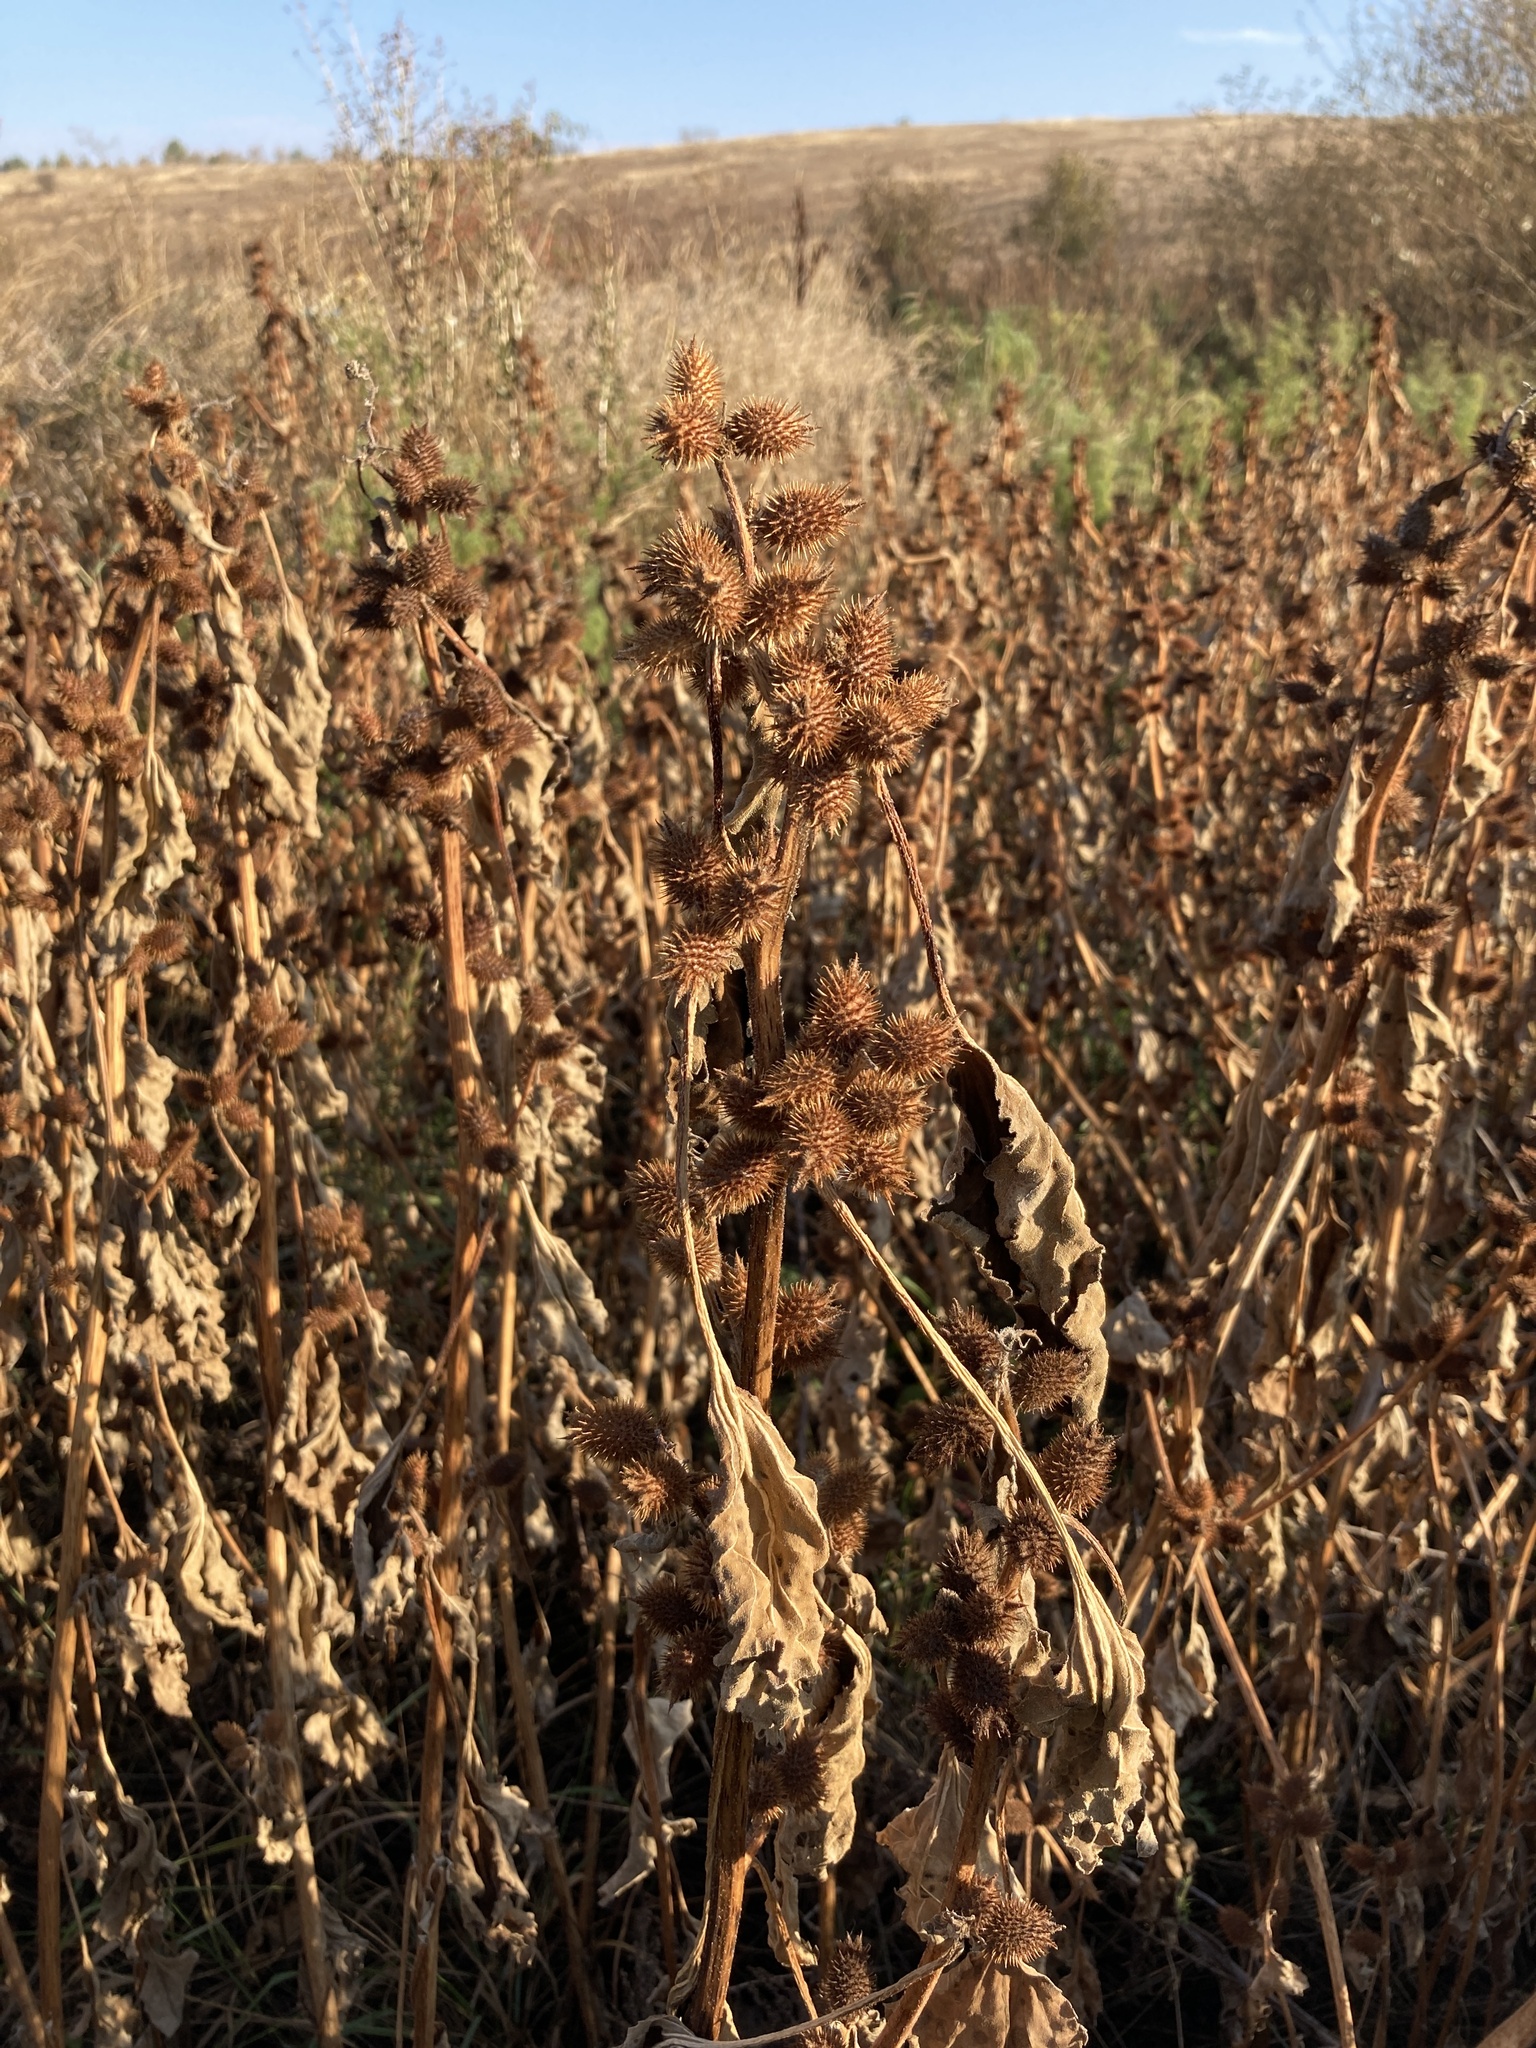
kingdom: Plantae
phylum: Tracheophyta
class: Magnoliopsida
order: Asterales
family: Asteraceae
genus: Xanthium
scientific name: Xanthium orientale
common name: Californian burr
